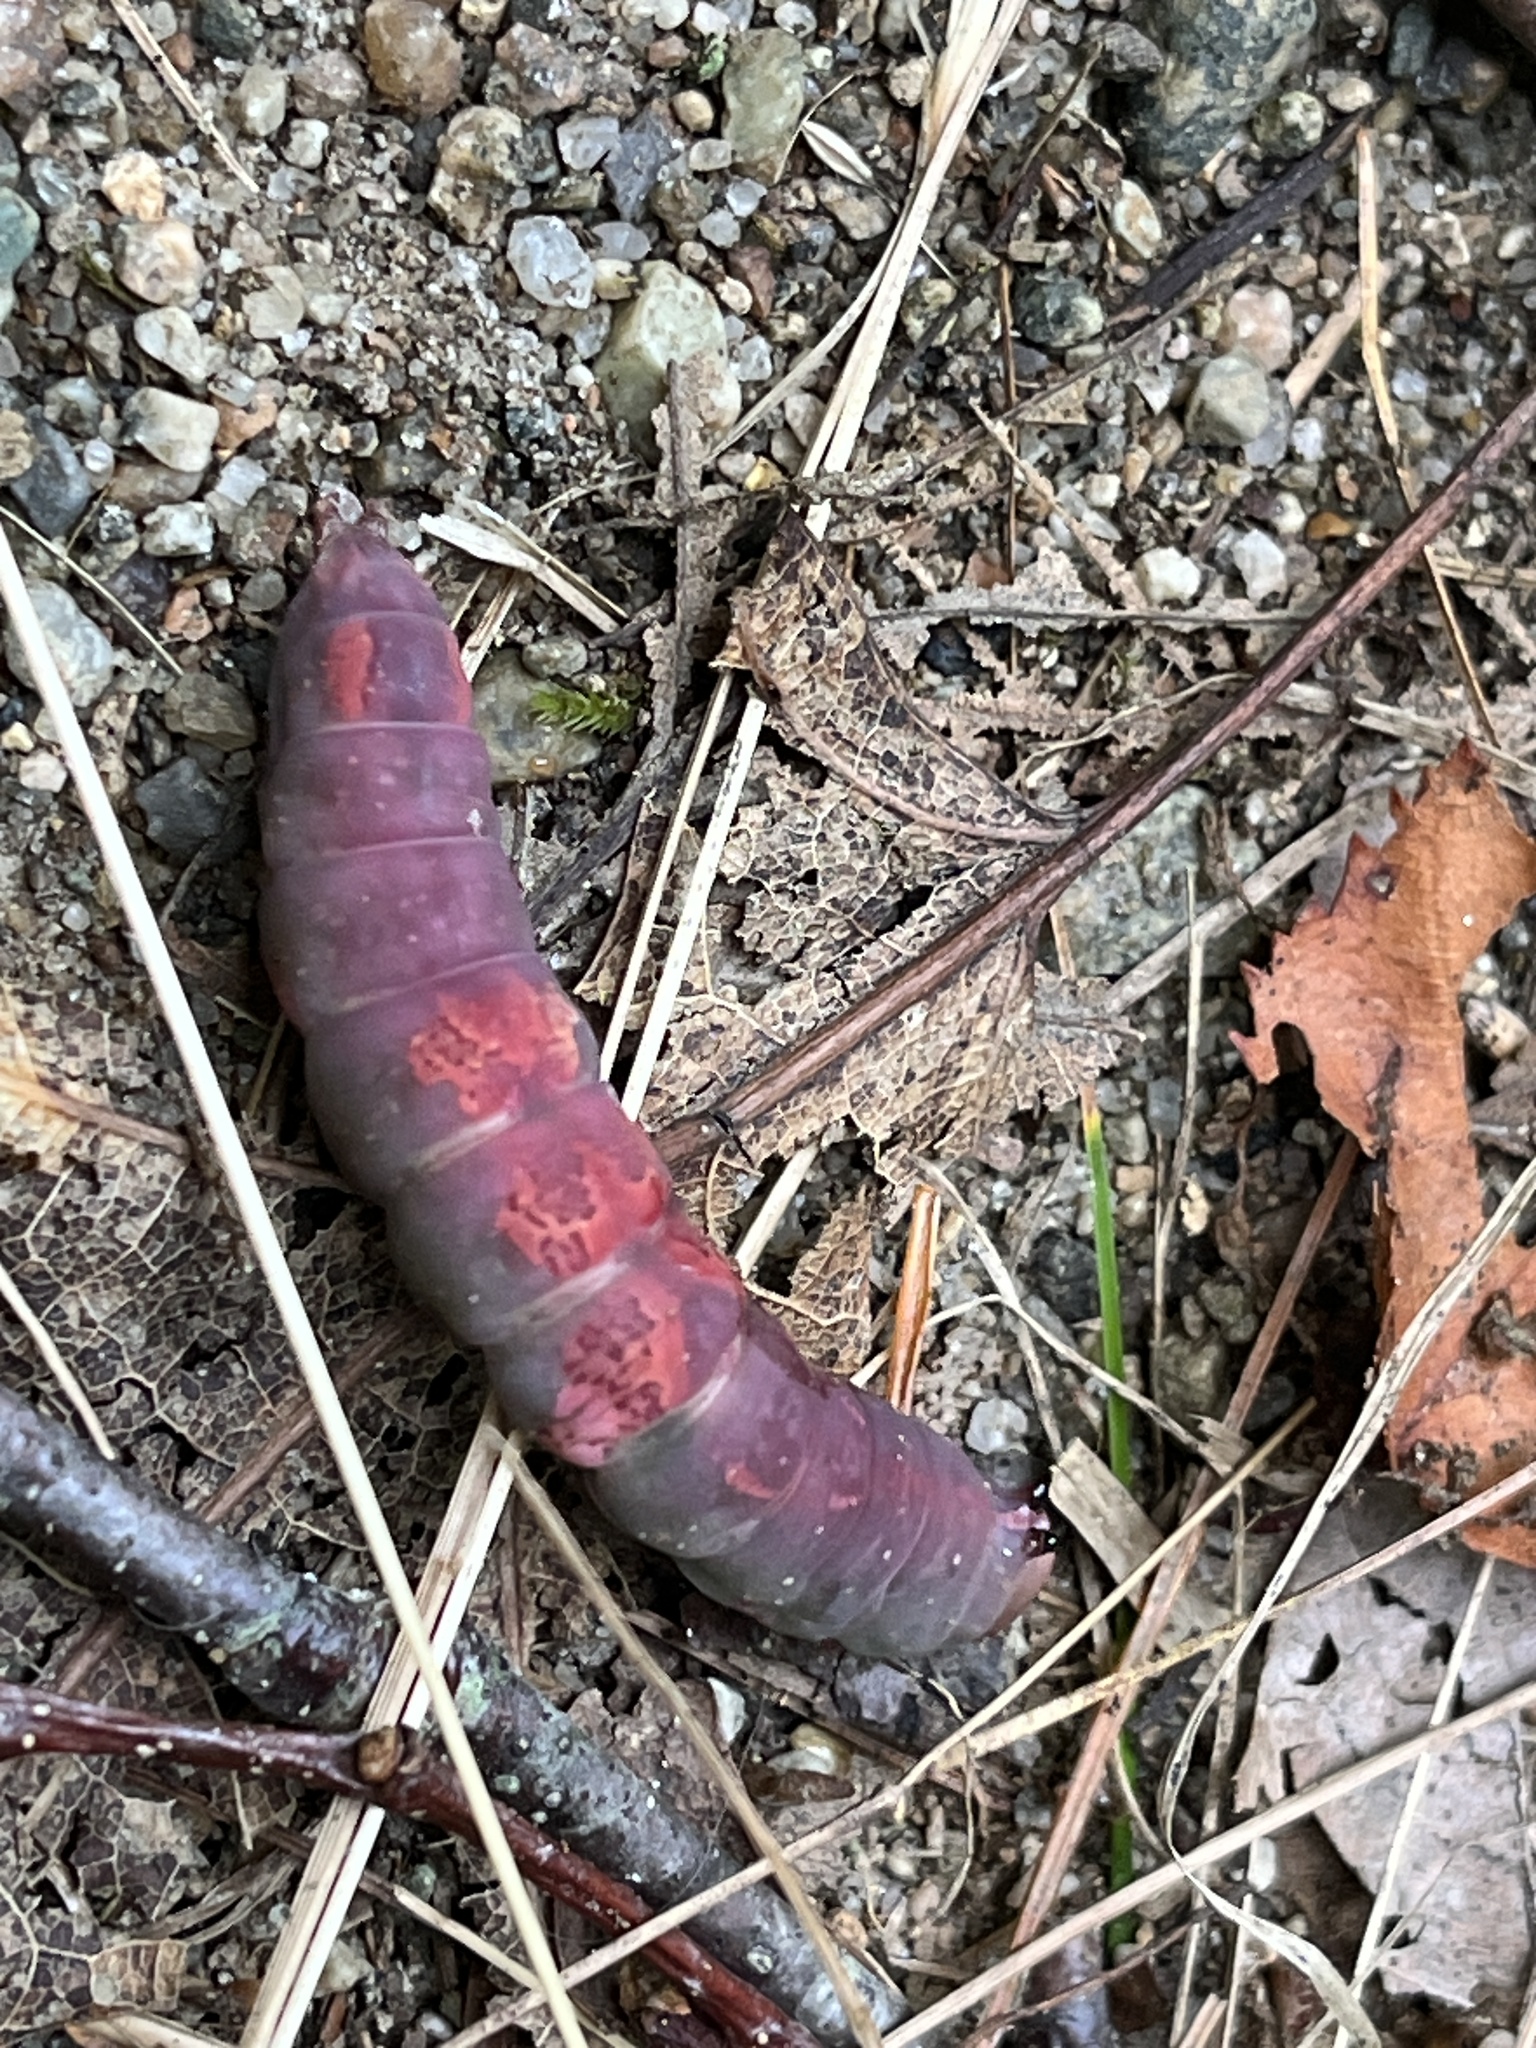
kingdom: Animalia
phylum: Arthropoda
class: Insecta
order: Lepidoptera
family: Notodontidae
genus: Heterocampa
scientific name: Heterocampa
